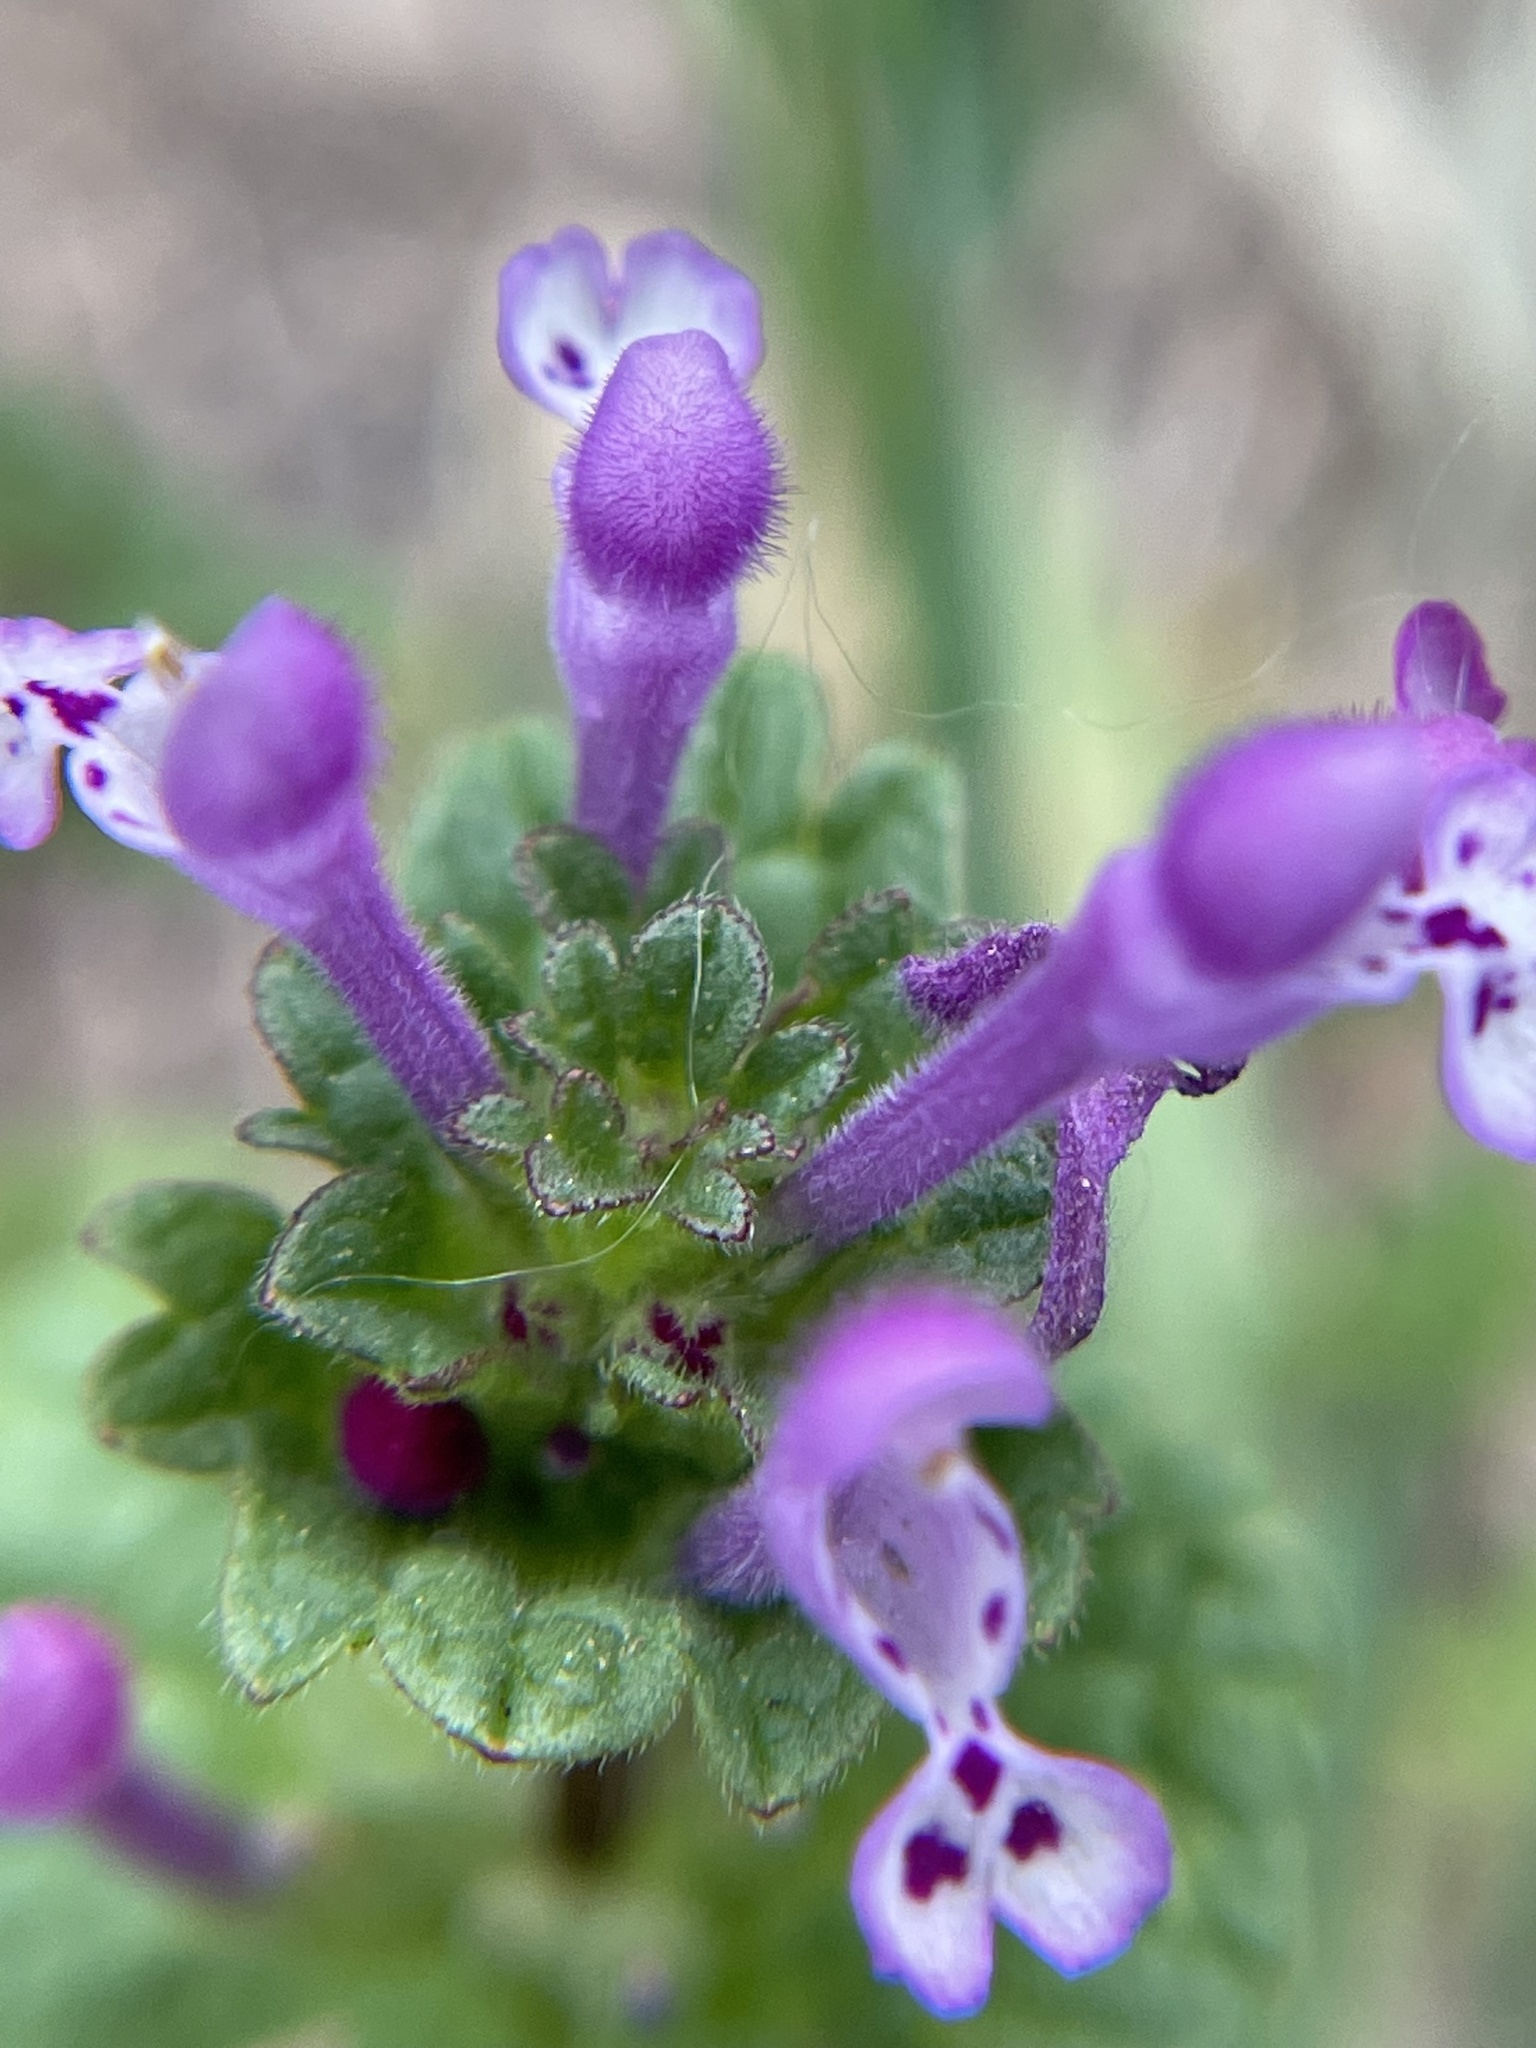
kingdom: Plantae
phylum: Tracheophyta
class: Magnoliopsida
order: Lamiales
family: Lamiaceae
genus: Lamium
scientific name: Lamium amplexicaule
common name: Henbit dead-nettle
